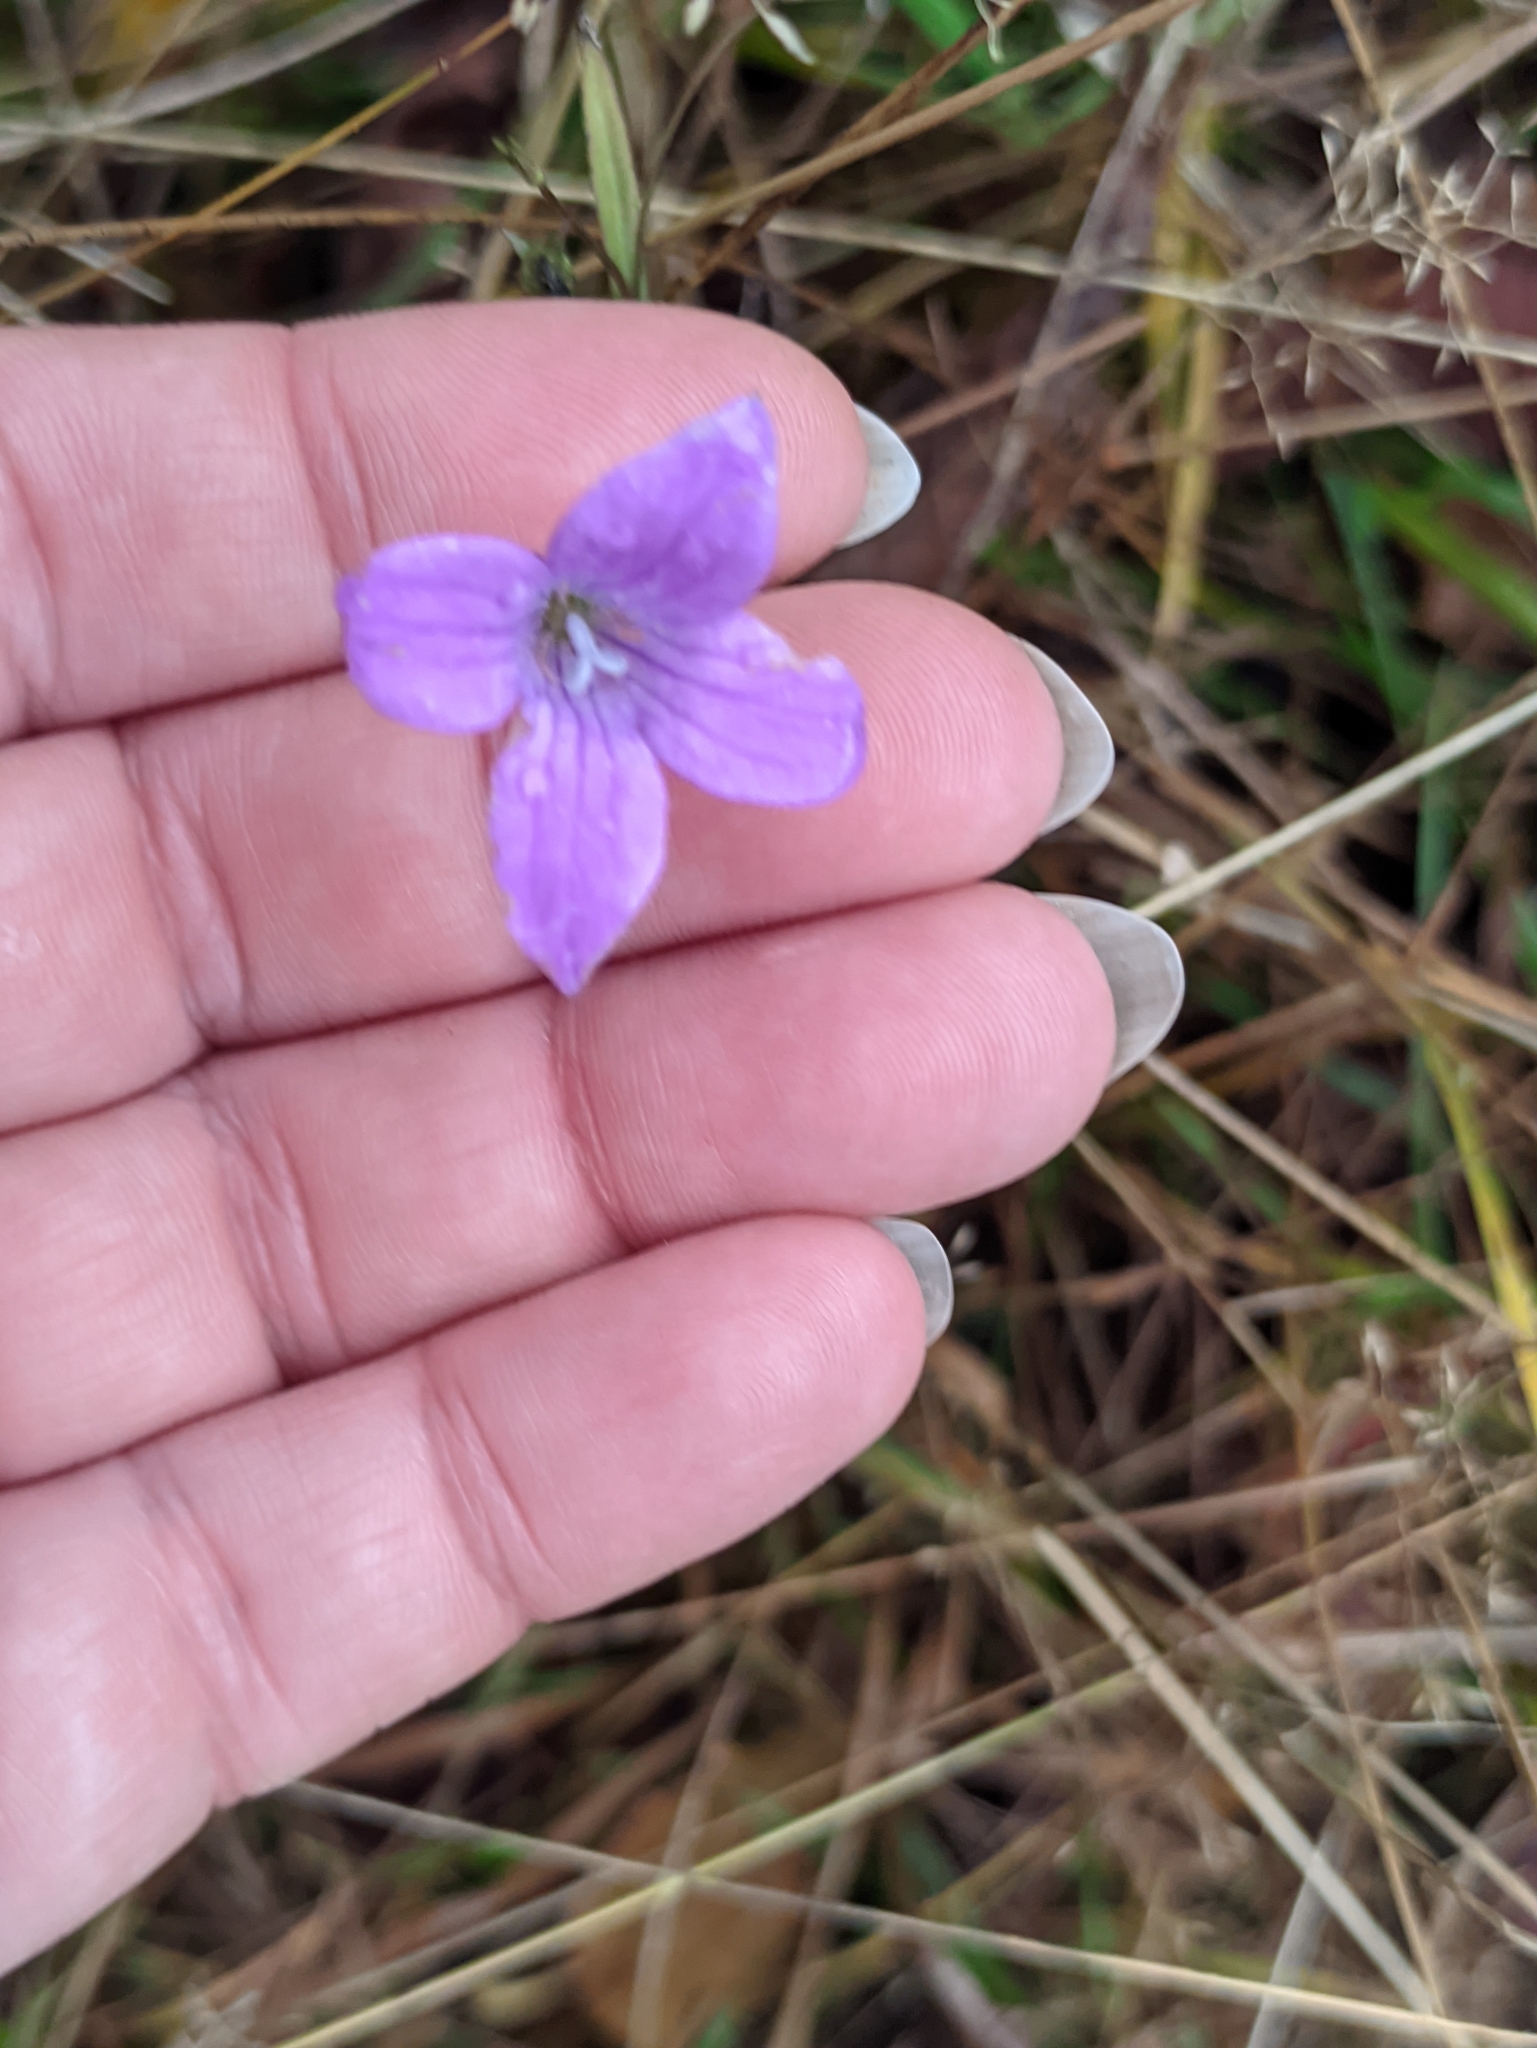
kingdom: Plantae
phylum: Tracheophyta
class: Magnoliopsida
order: Asterales
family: Campanulaceae
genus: Campanula
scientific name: Campanula patula
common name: Spreading bellflower
